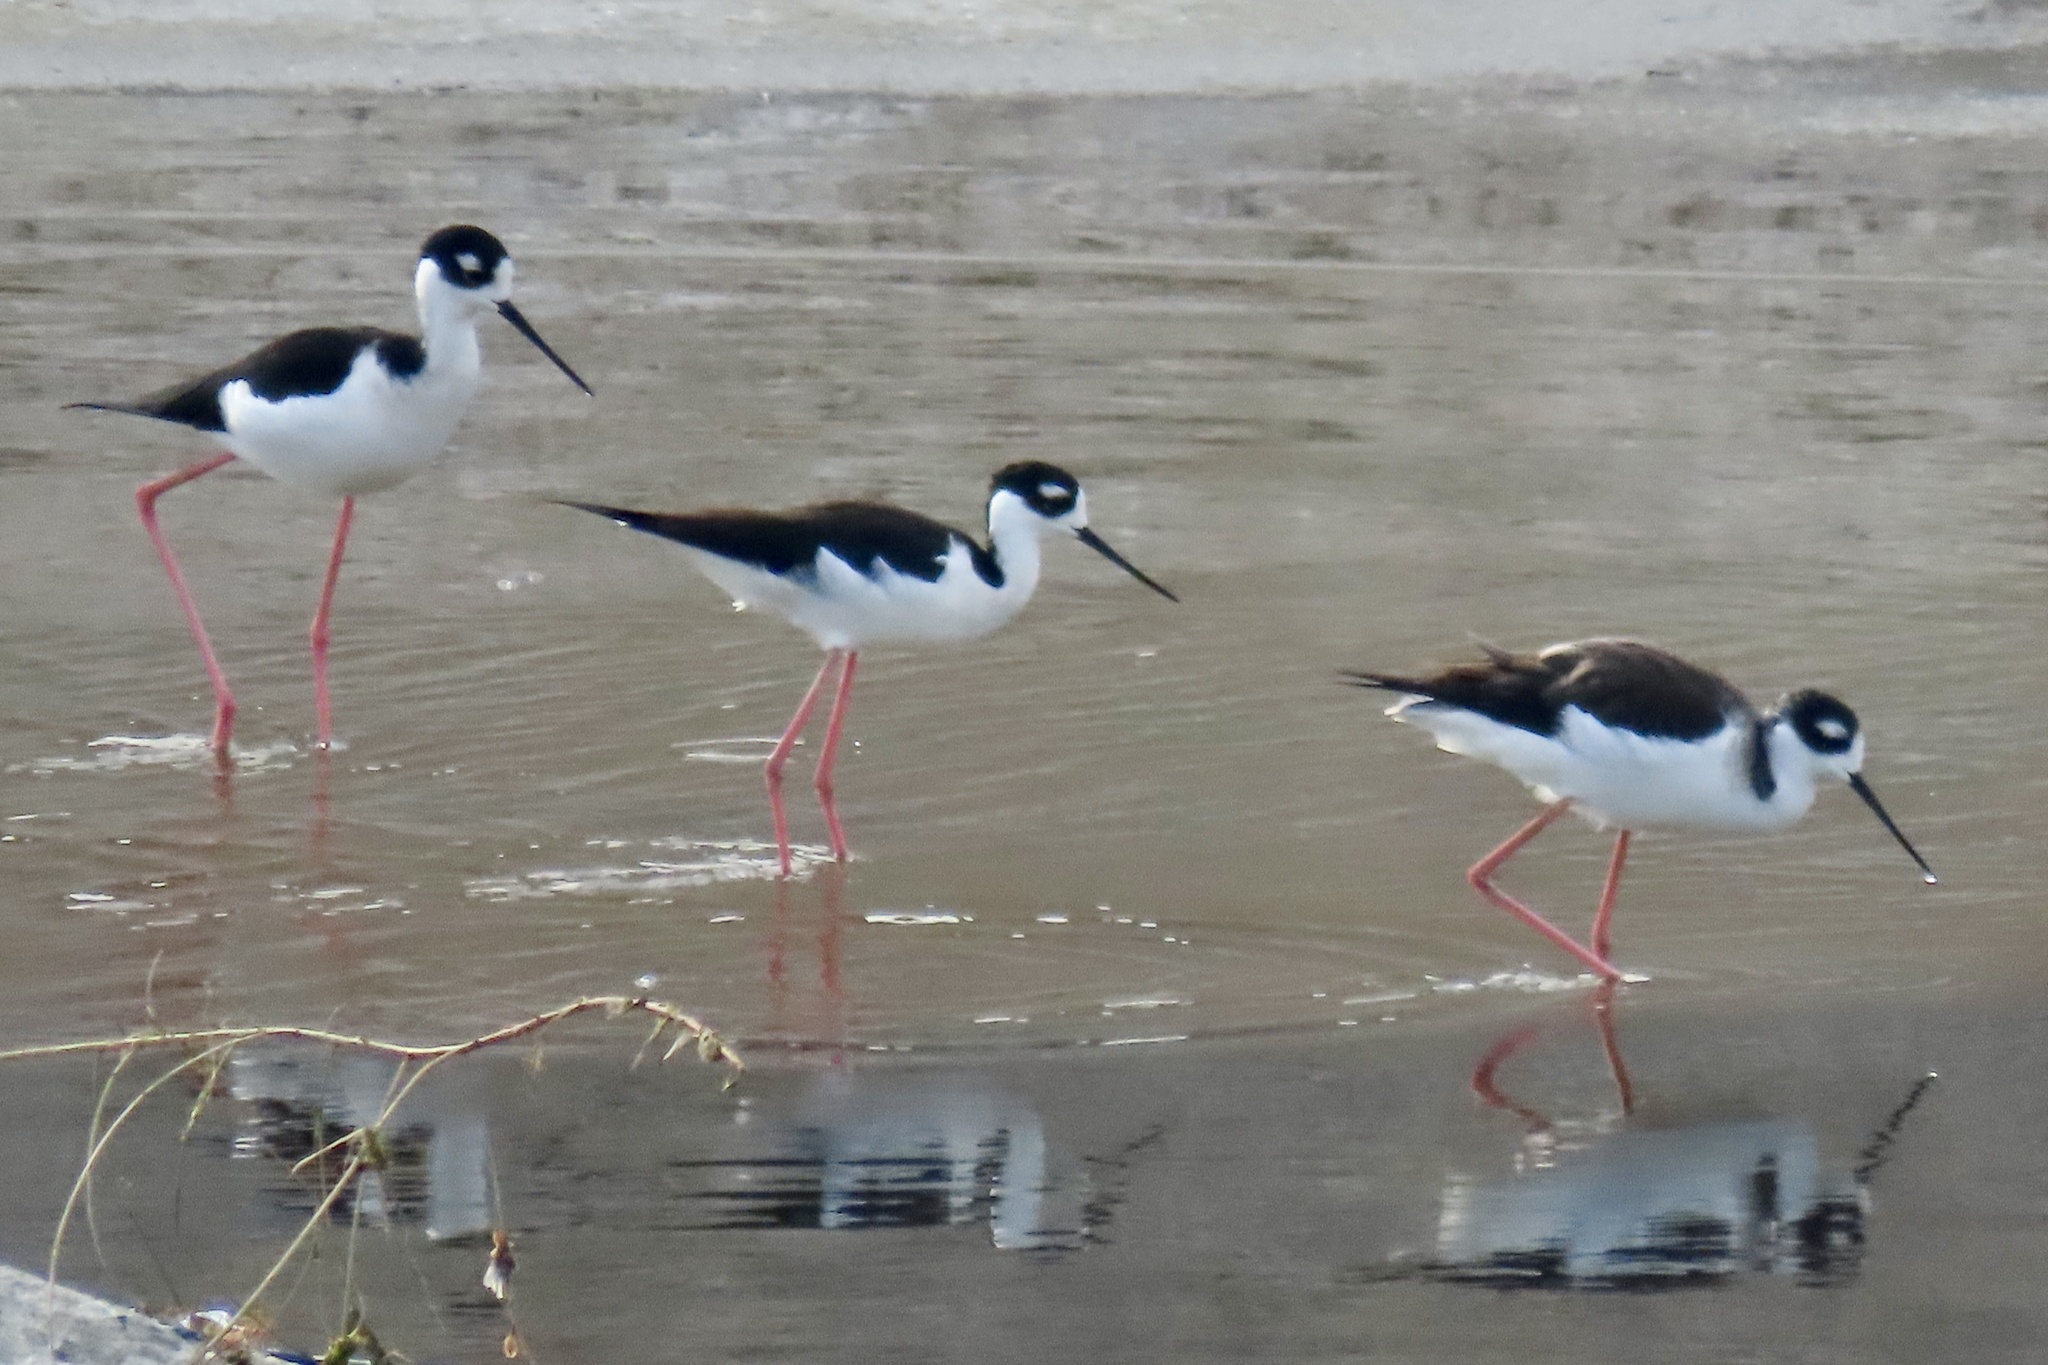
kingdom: Animalia
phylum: Chordata
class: Aves
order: Charadriiformes
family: Recurvirostridae
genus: Himantopus
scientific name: Himantopus mexicanus
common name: Black-necked stilt
